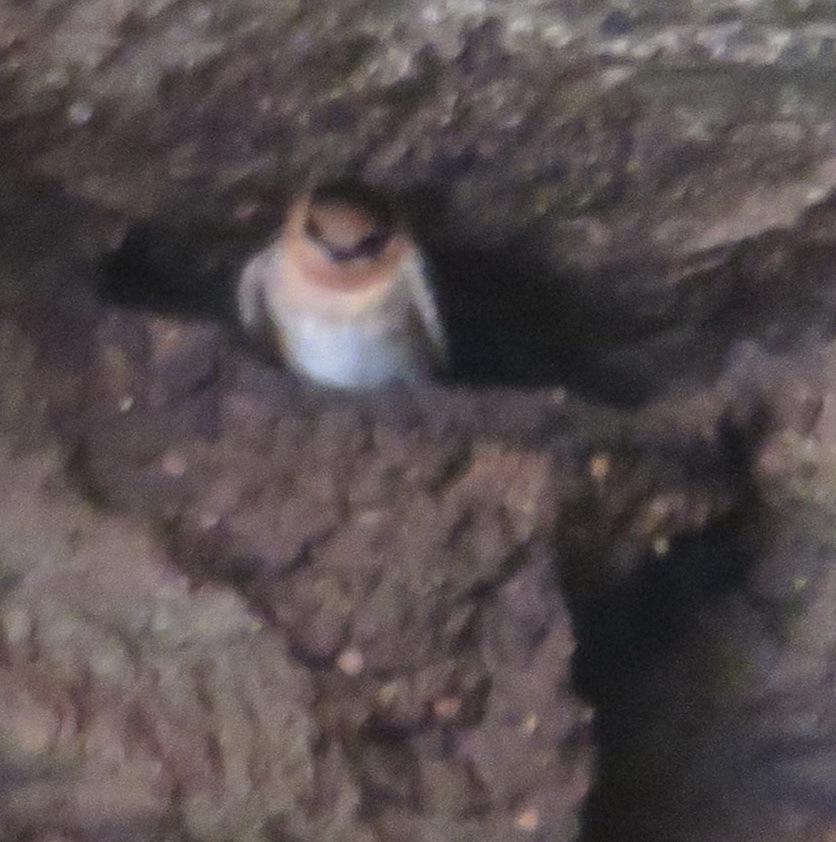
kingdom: Animalia
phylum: Chordata
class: Aves
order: Passeriformes
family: Hirundinidae
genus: Petrochelidon
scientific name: Petrochelidon fulva
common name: Cave swallow
